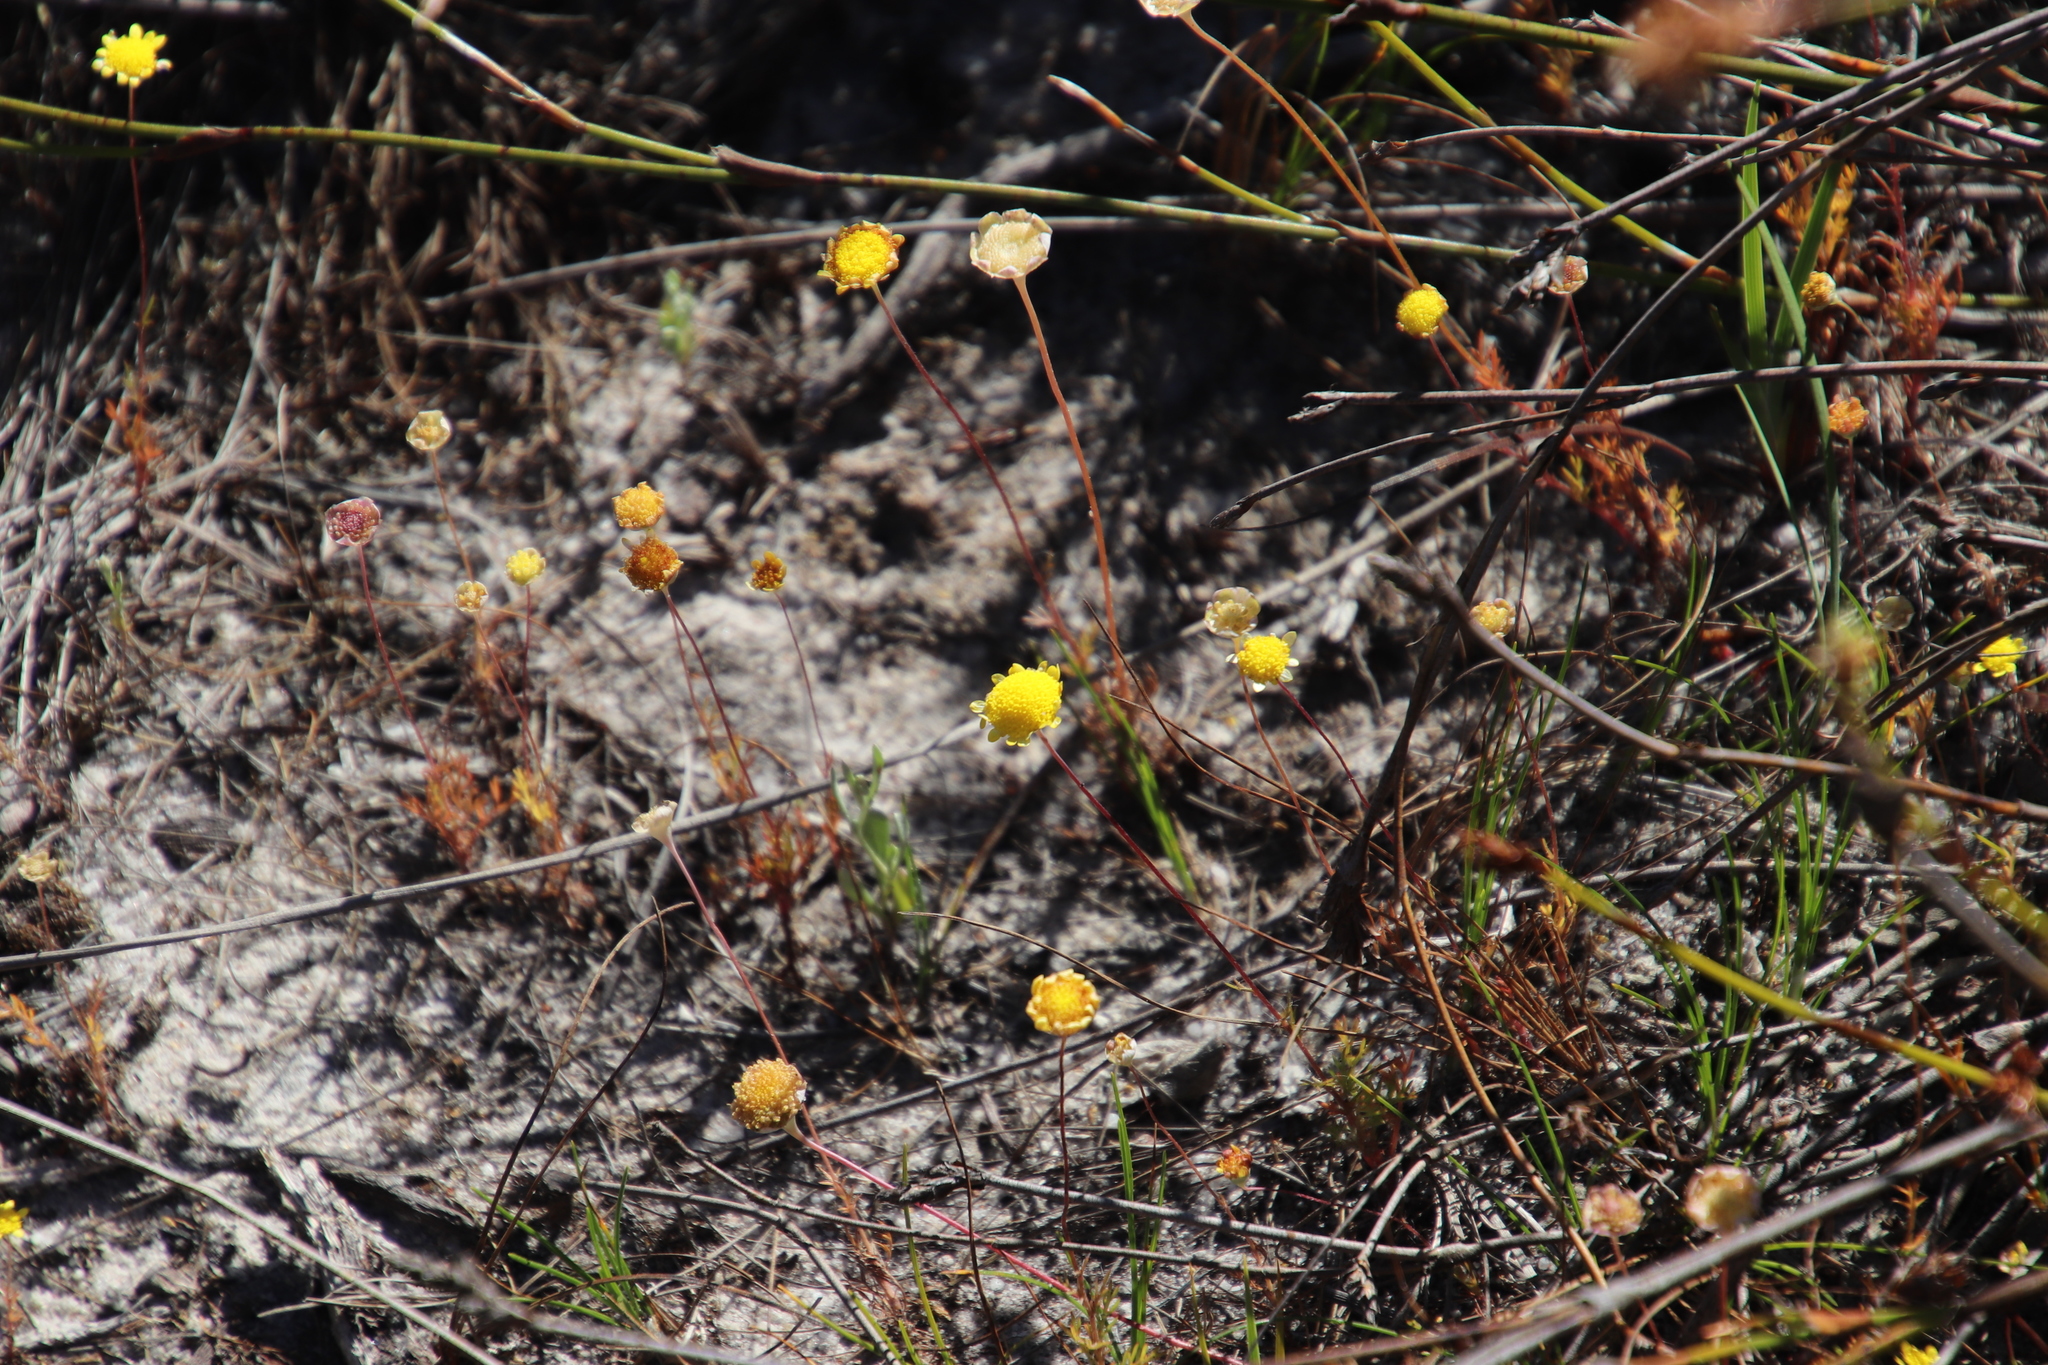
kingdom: Plantae
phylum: Tracheophyta
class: Magnoliopsida
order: Asterales
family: Asteraceae
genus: Cotula
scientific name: Cotula pruinosa
